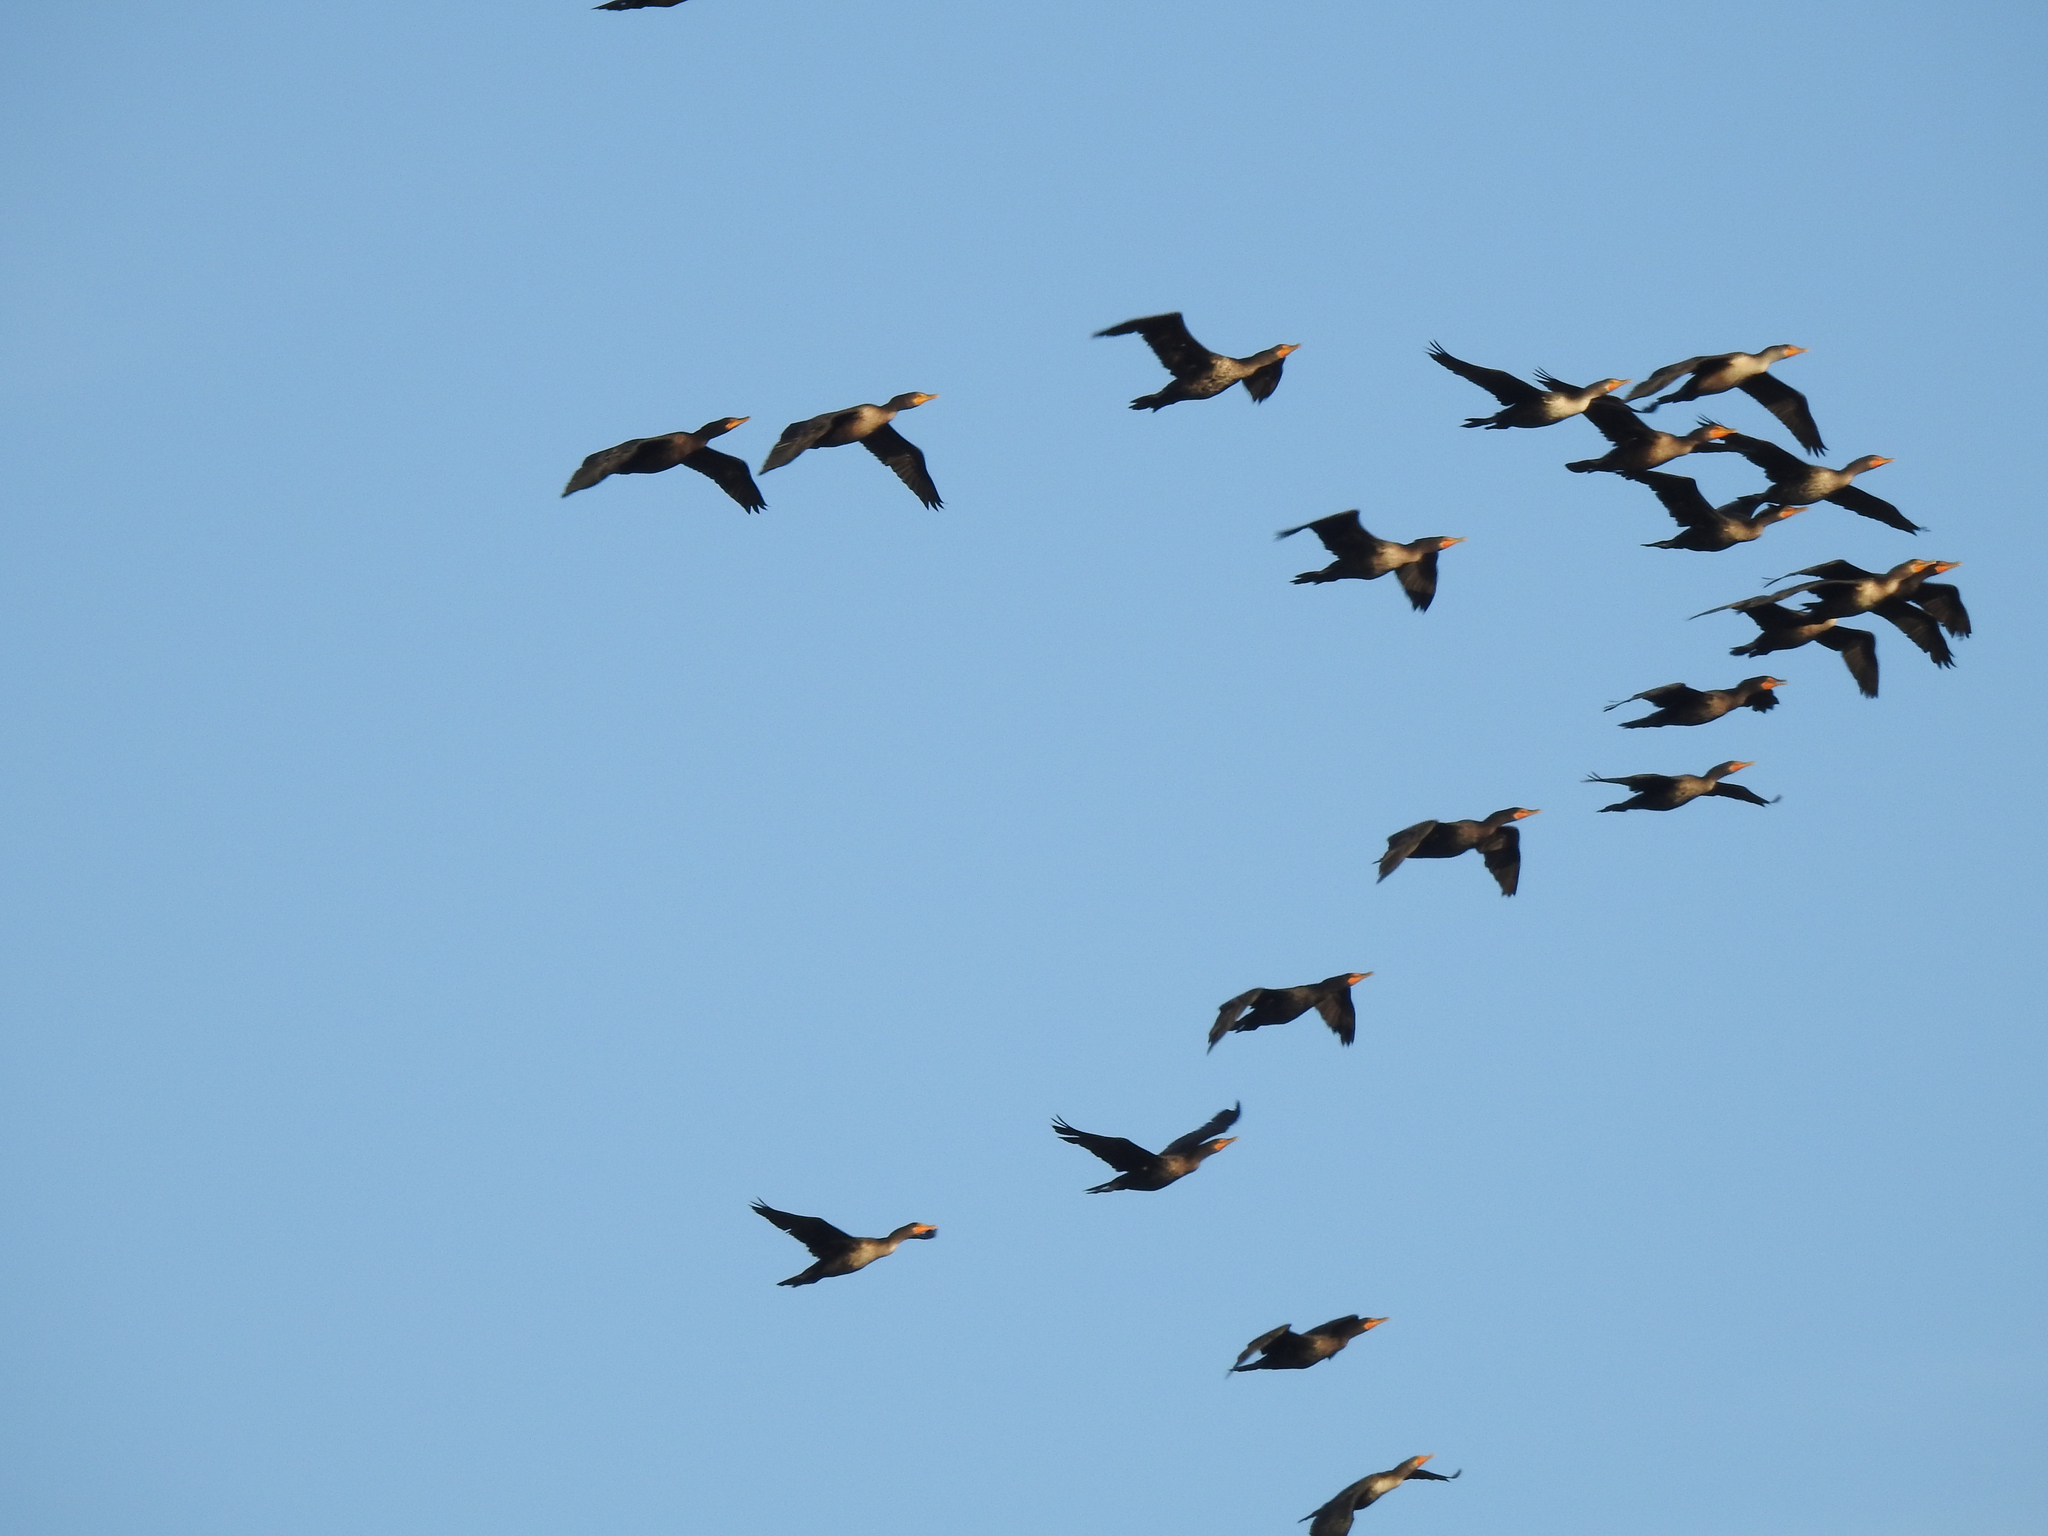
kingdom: Animalia
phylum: Chordata
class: Aves
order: Suliformes
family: Phalacrocoracidae
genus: Phalacrocorax
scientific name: Phalacrocorax auritus
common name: Double-crested cormorant
